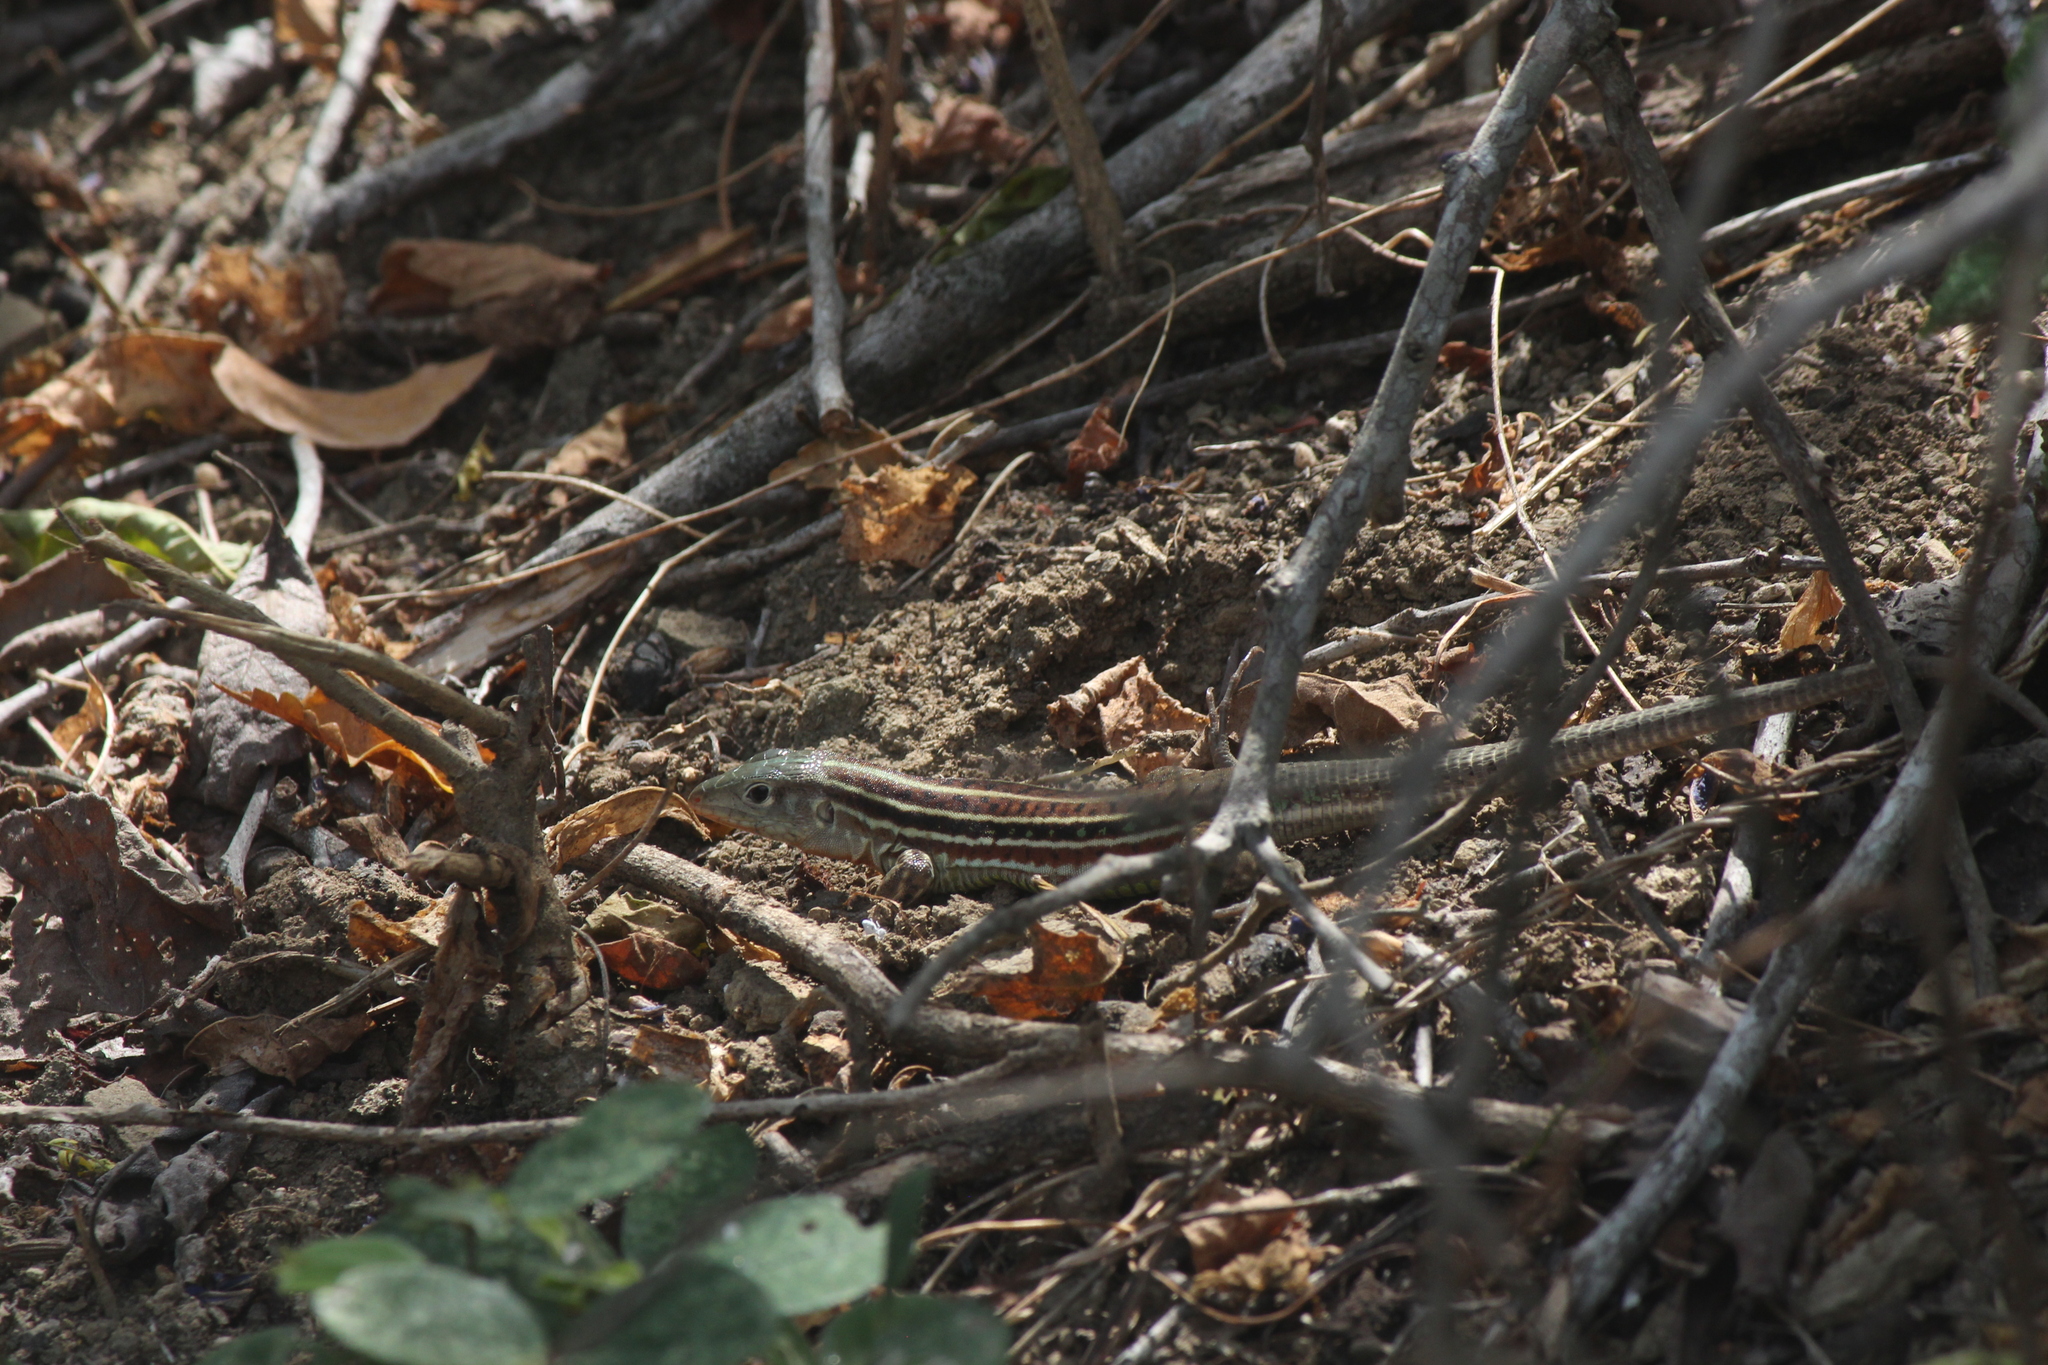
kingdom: Animalia
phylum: Chordata
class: Squamata
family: Teiidae
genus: Medopheos
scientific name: Medopheos edracanthus
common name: Bocourt's ameiva
